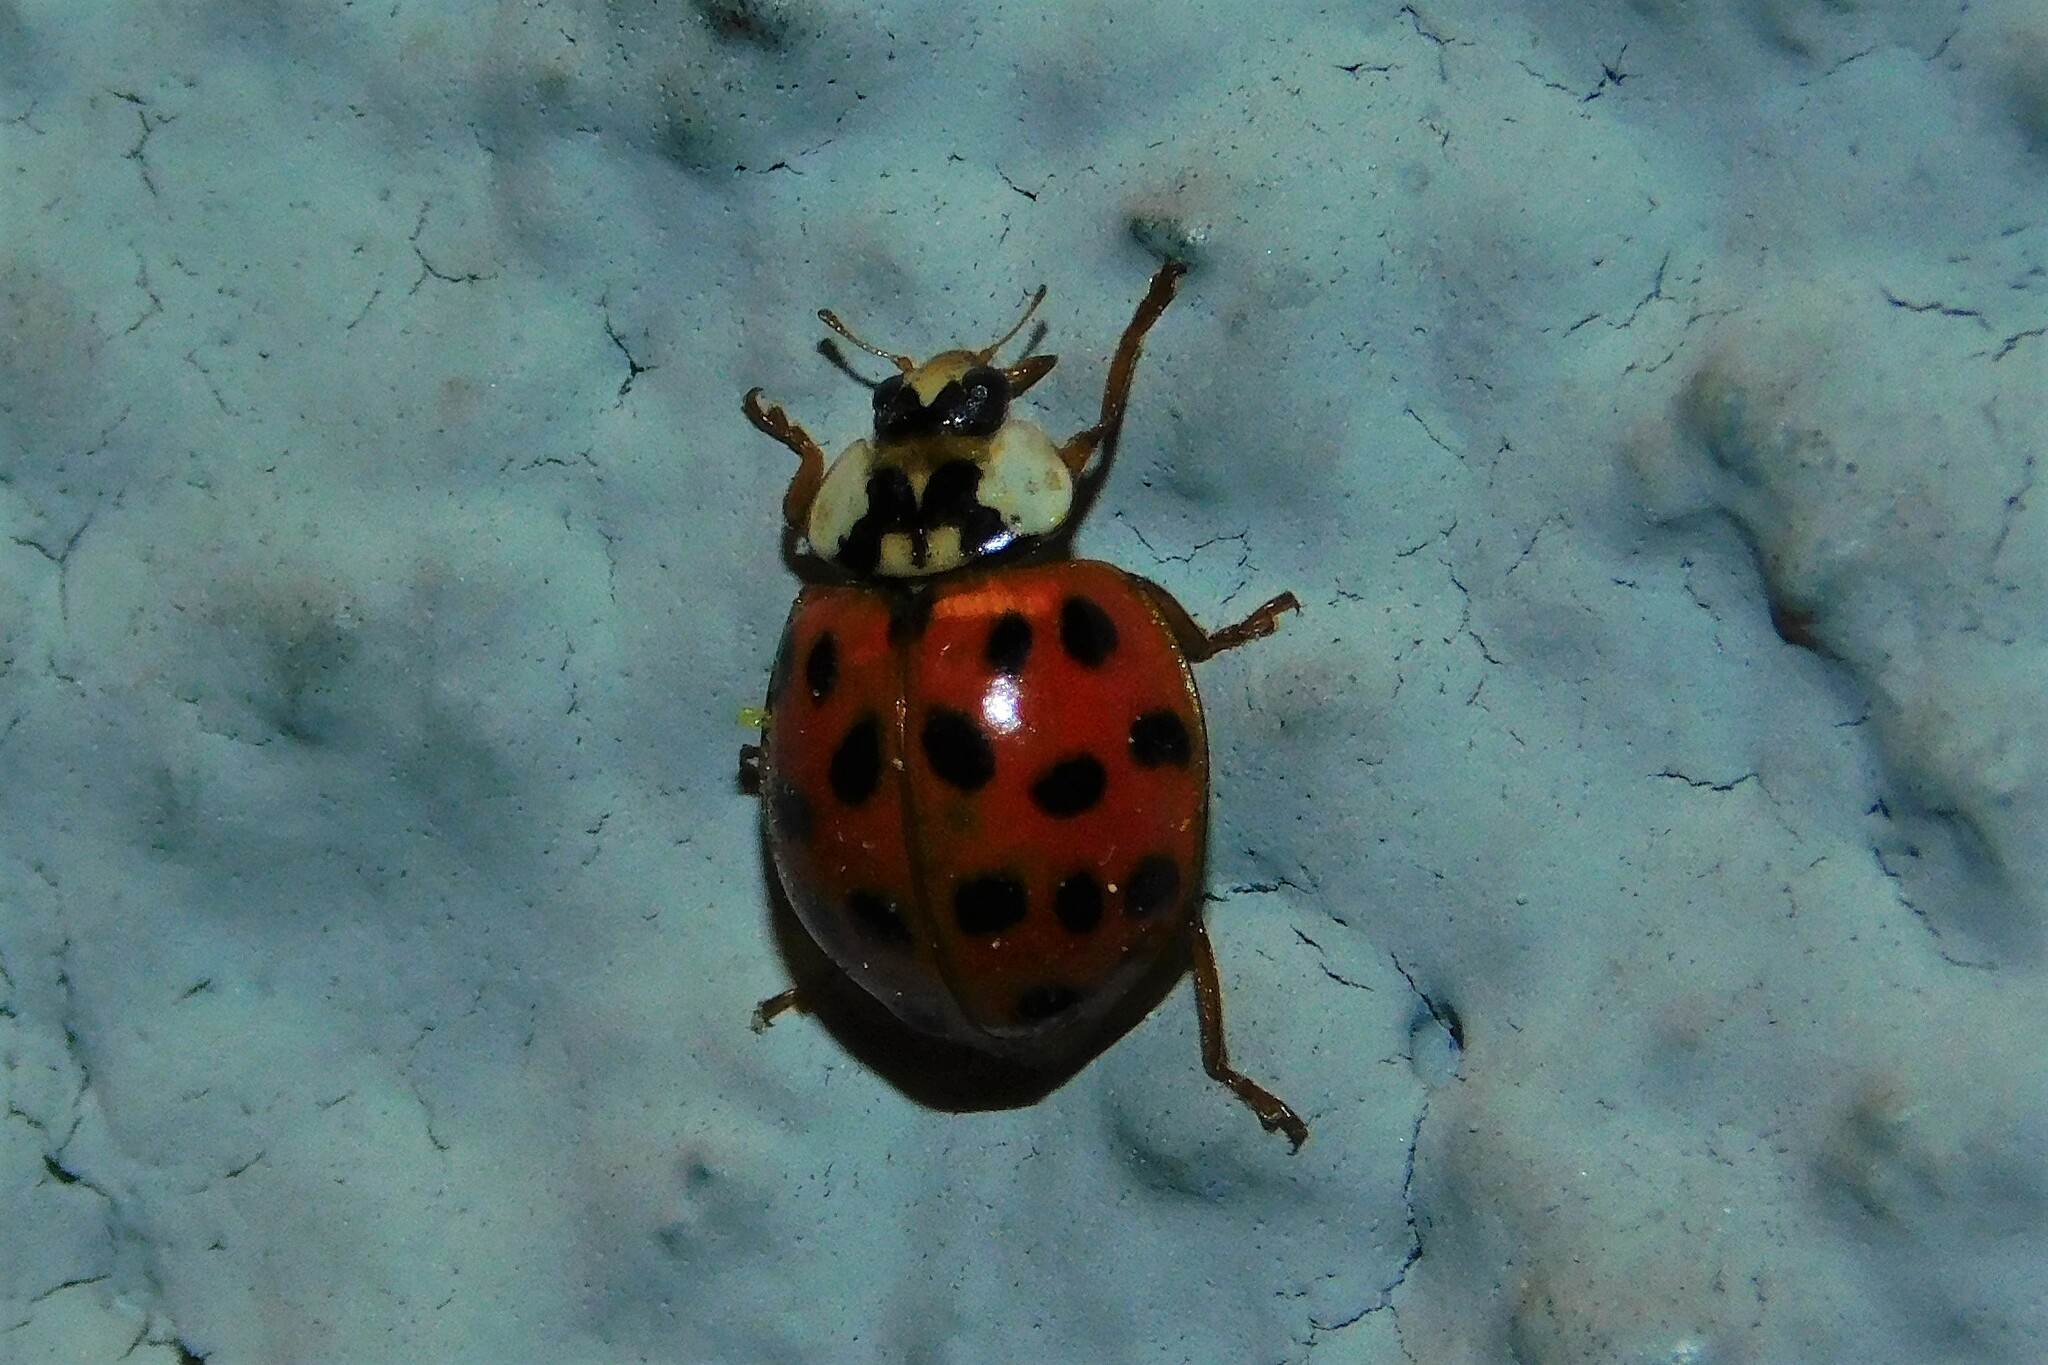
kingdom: Animalia
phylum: Arthropoda
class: Insecta
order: Coleoptera
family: Coccinellidae
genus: Harmonia
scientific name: Harmonia axyridis
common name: Harlequin ladybird
